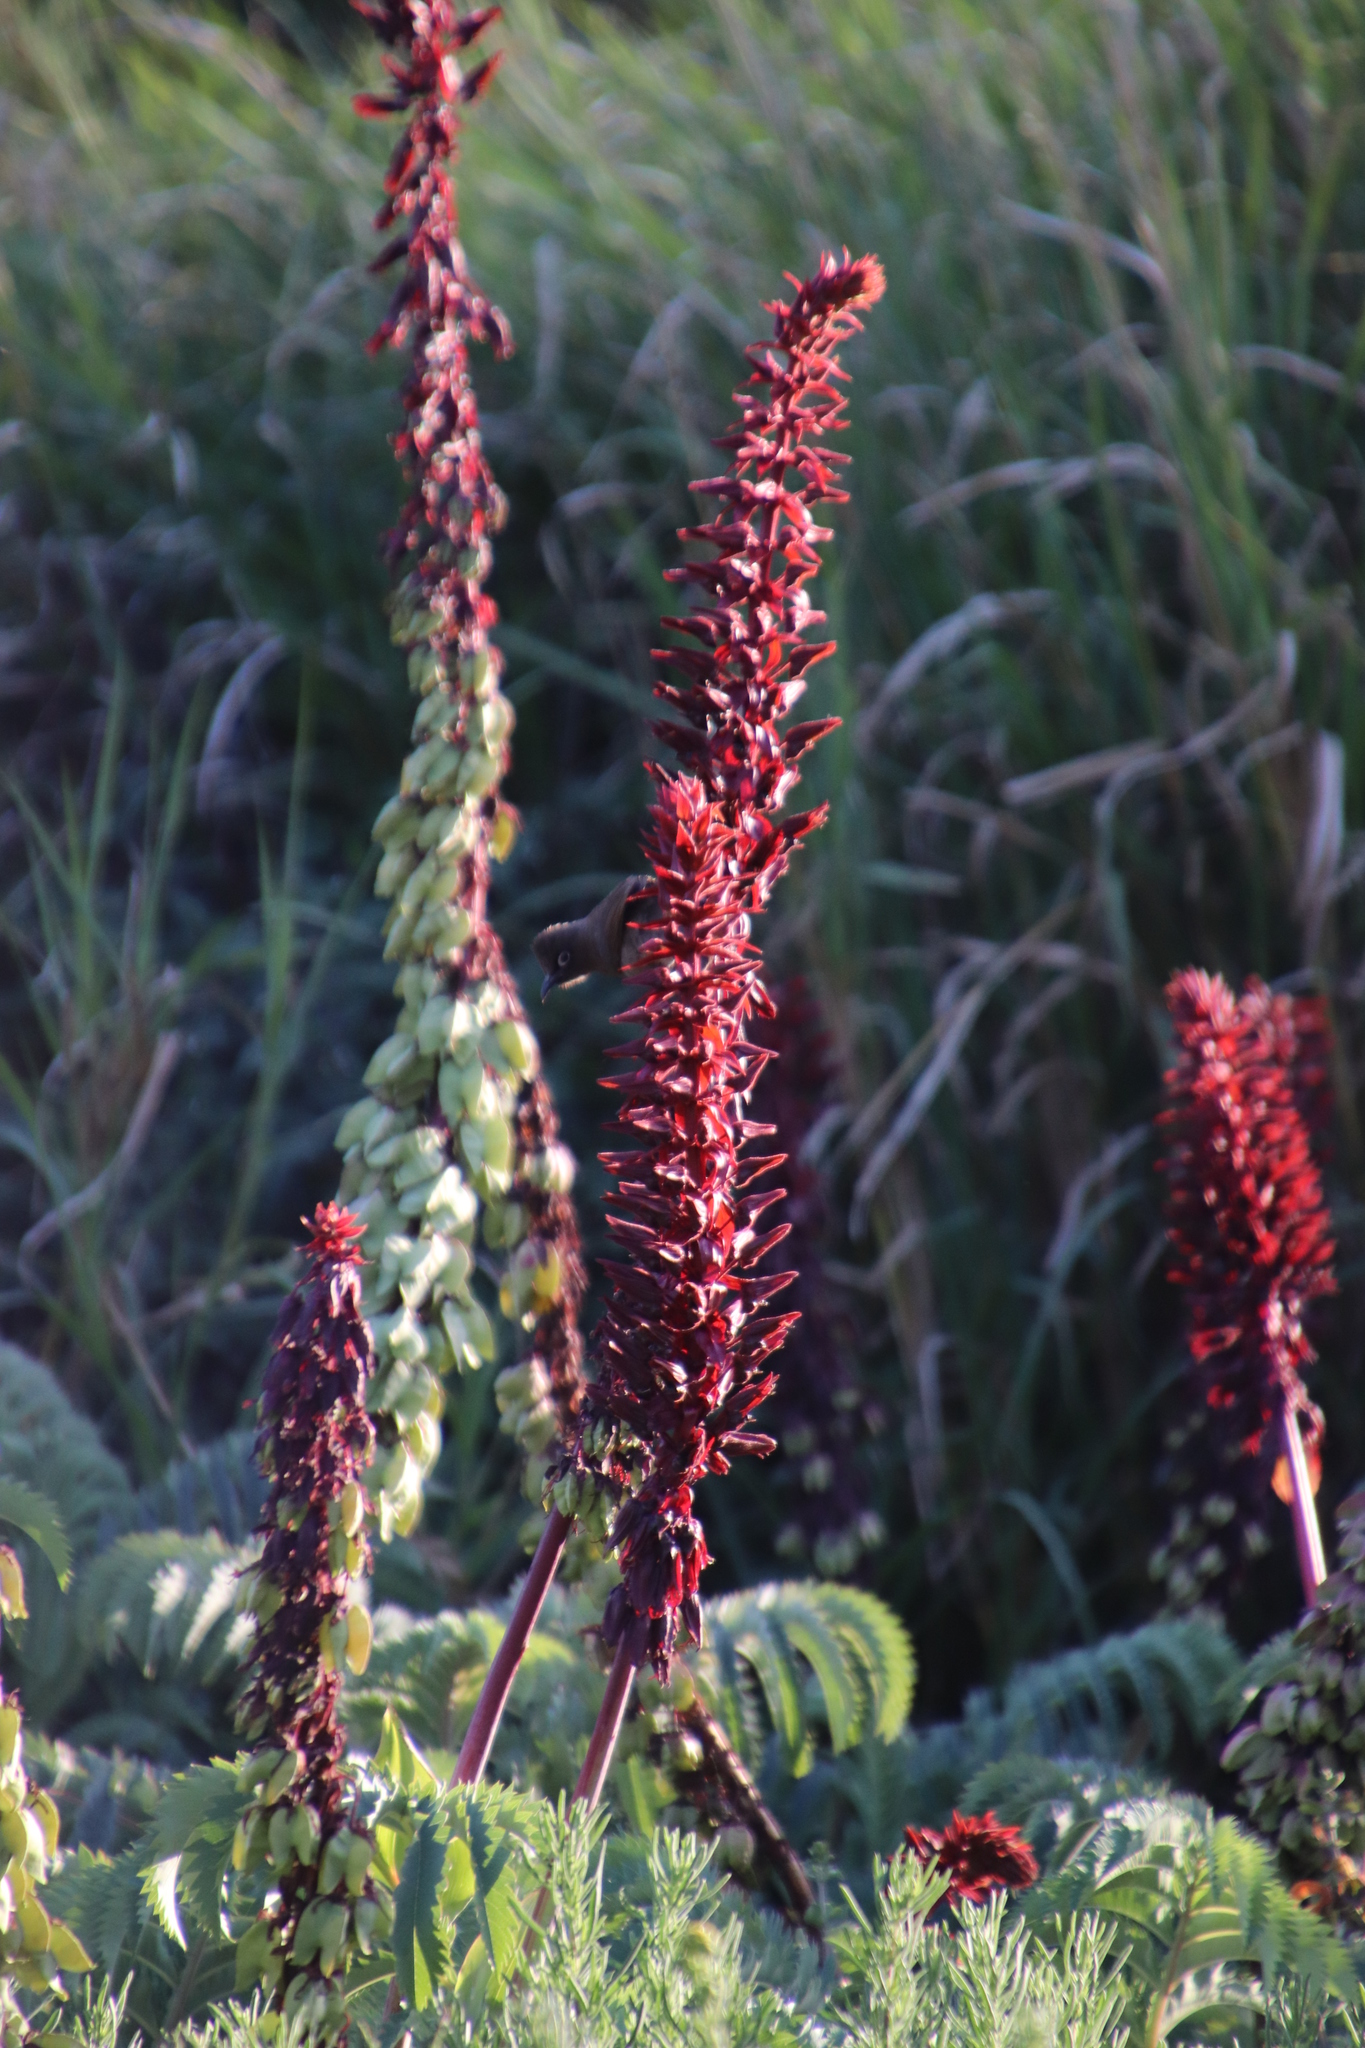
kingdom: Plantae
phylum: Tracheophyta
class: Magnoliopsida
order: Geraniales
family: Melianthaceae
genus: Melianthus
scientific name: Melianthus major
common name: Honey-flower
